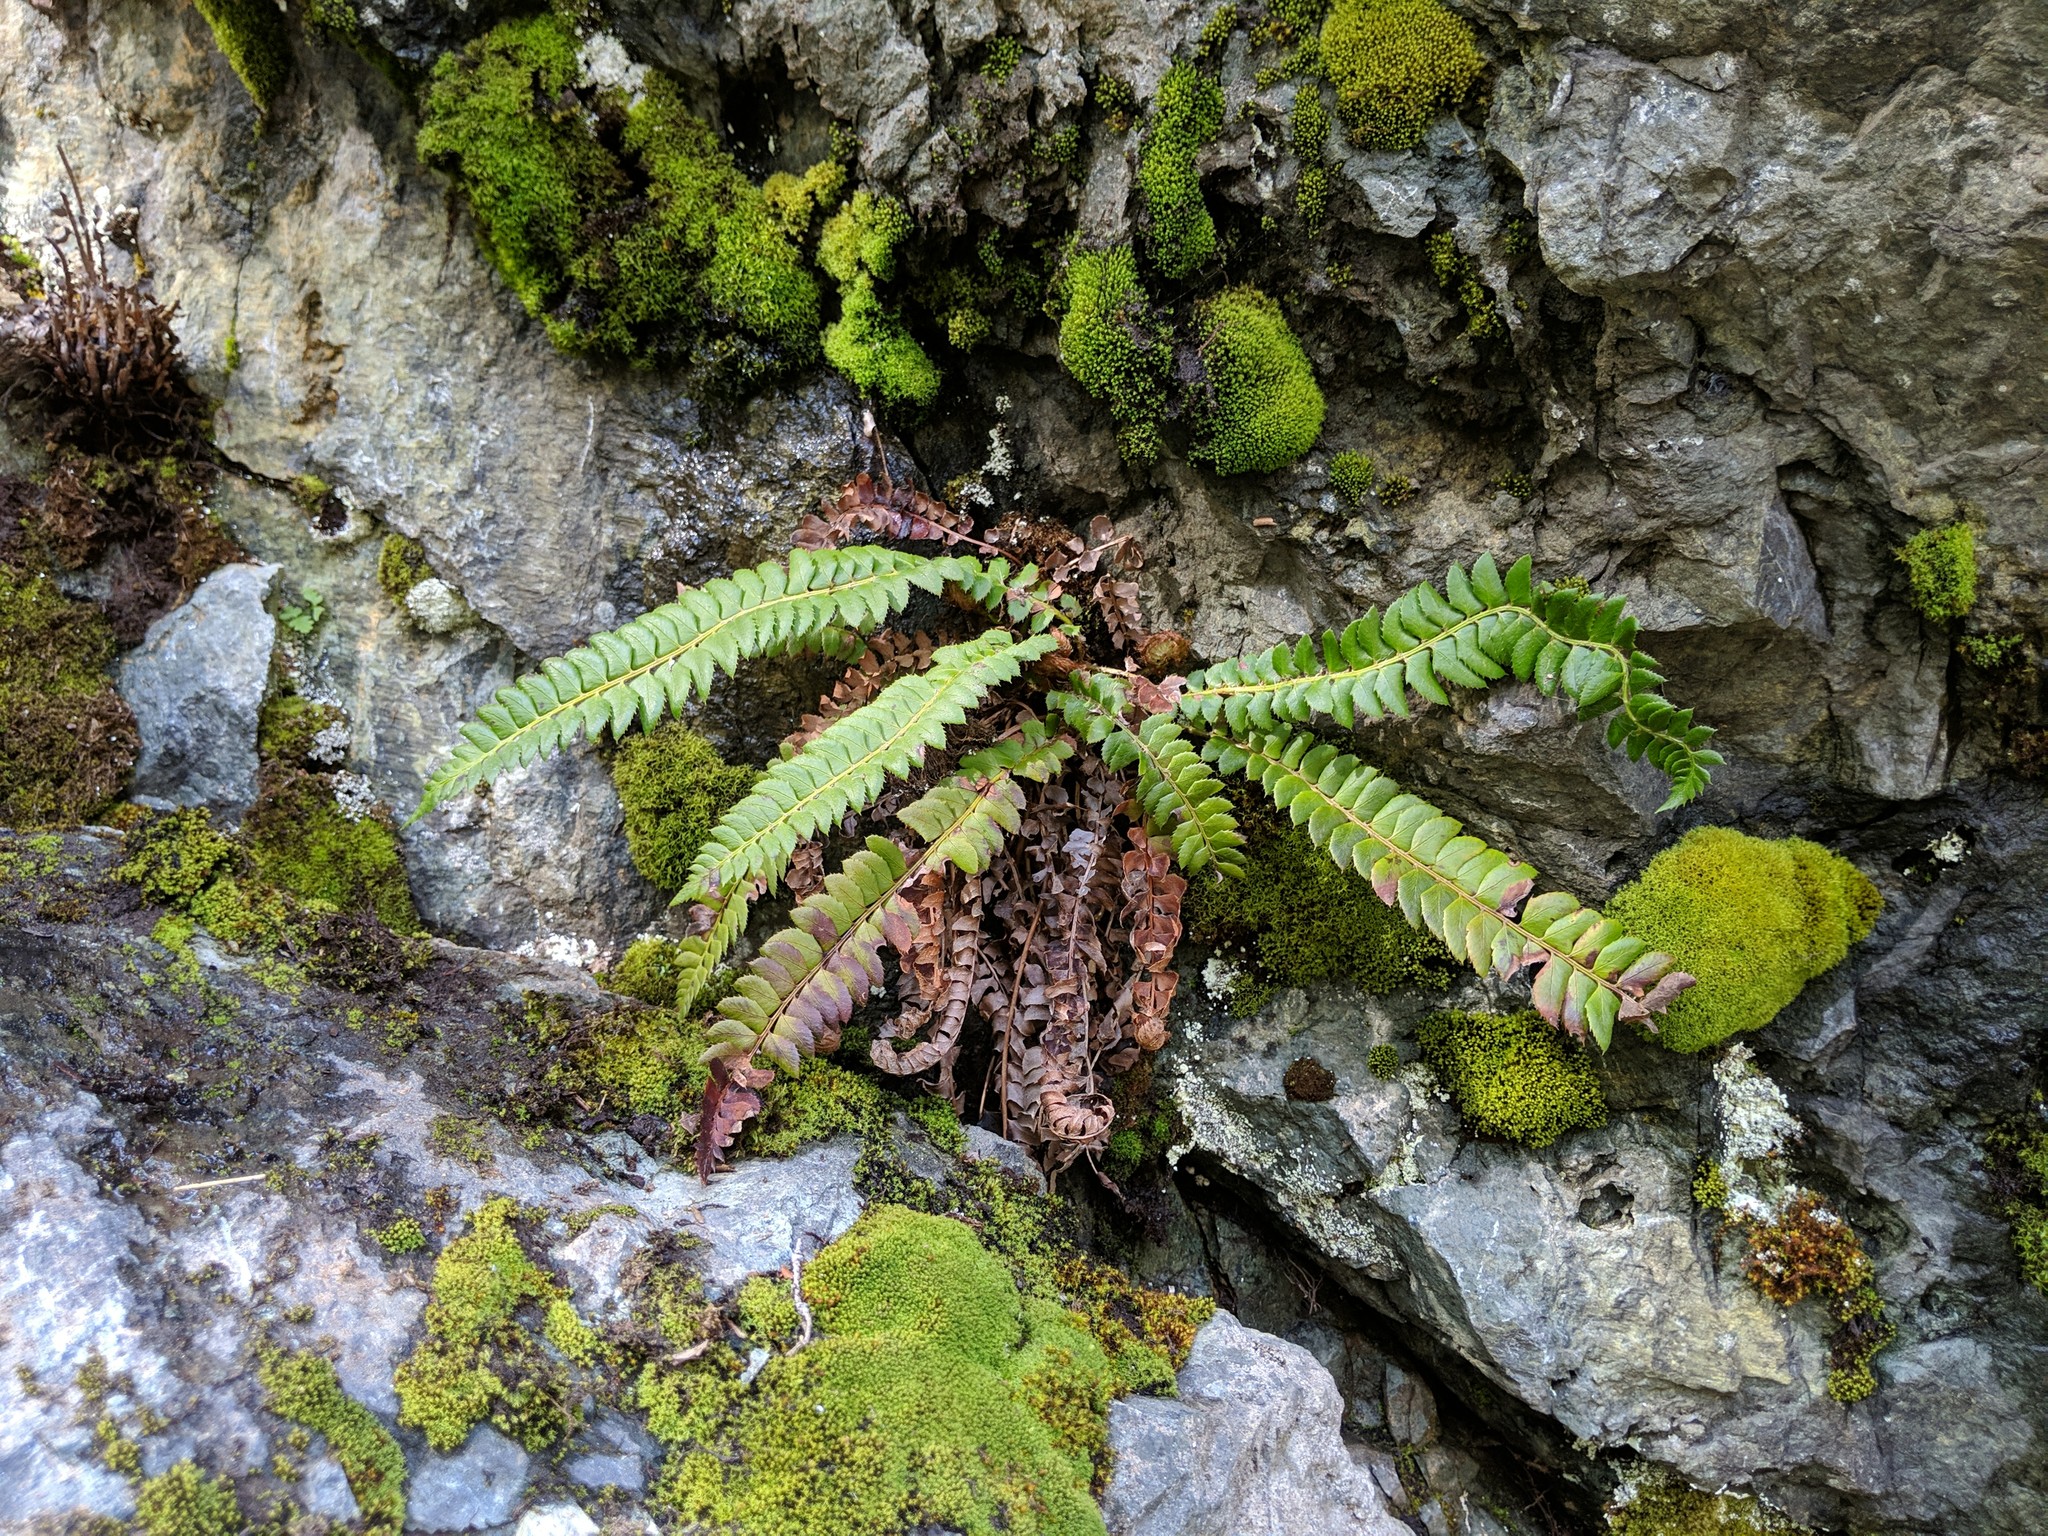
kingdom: Plantae
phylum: Tracheophyta
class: Polypodiopsida
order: Polypodiales
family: Dryopteridaceae
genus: Polystichum
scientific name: Polystichum lonchitis
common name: Holly fern
